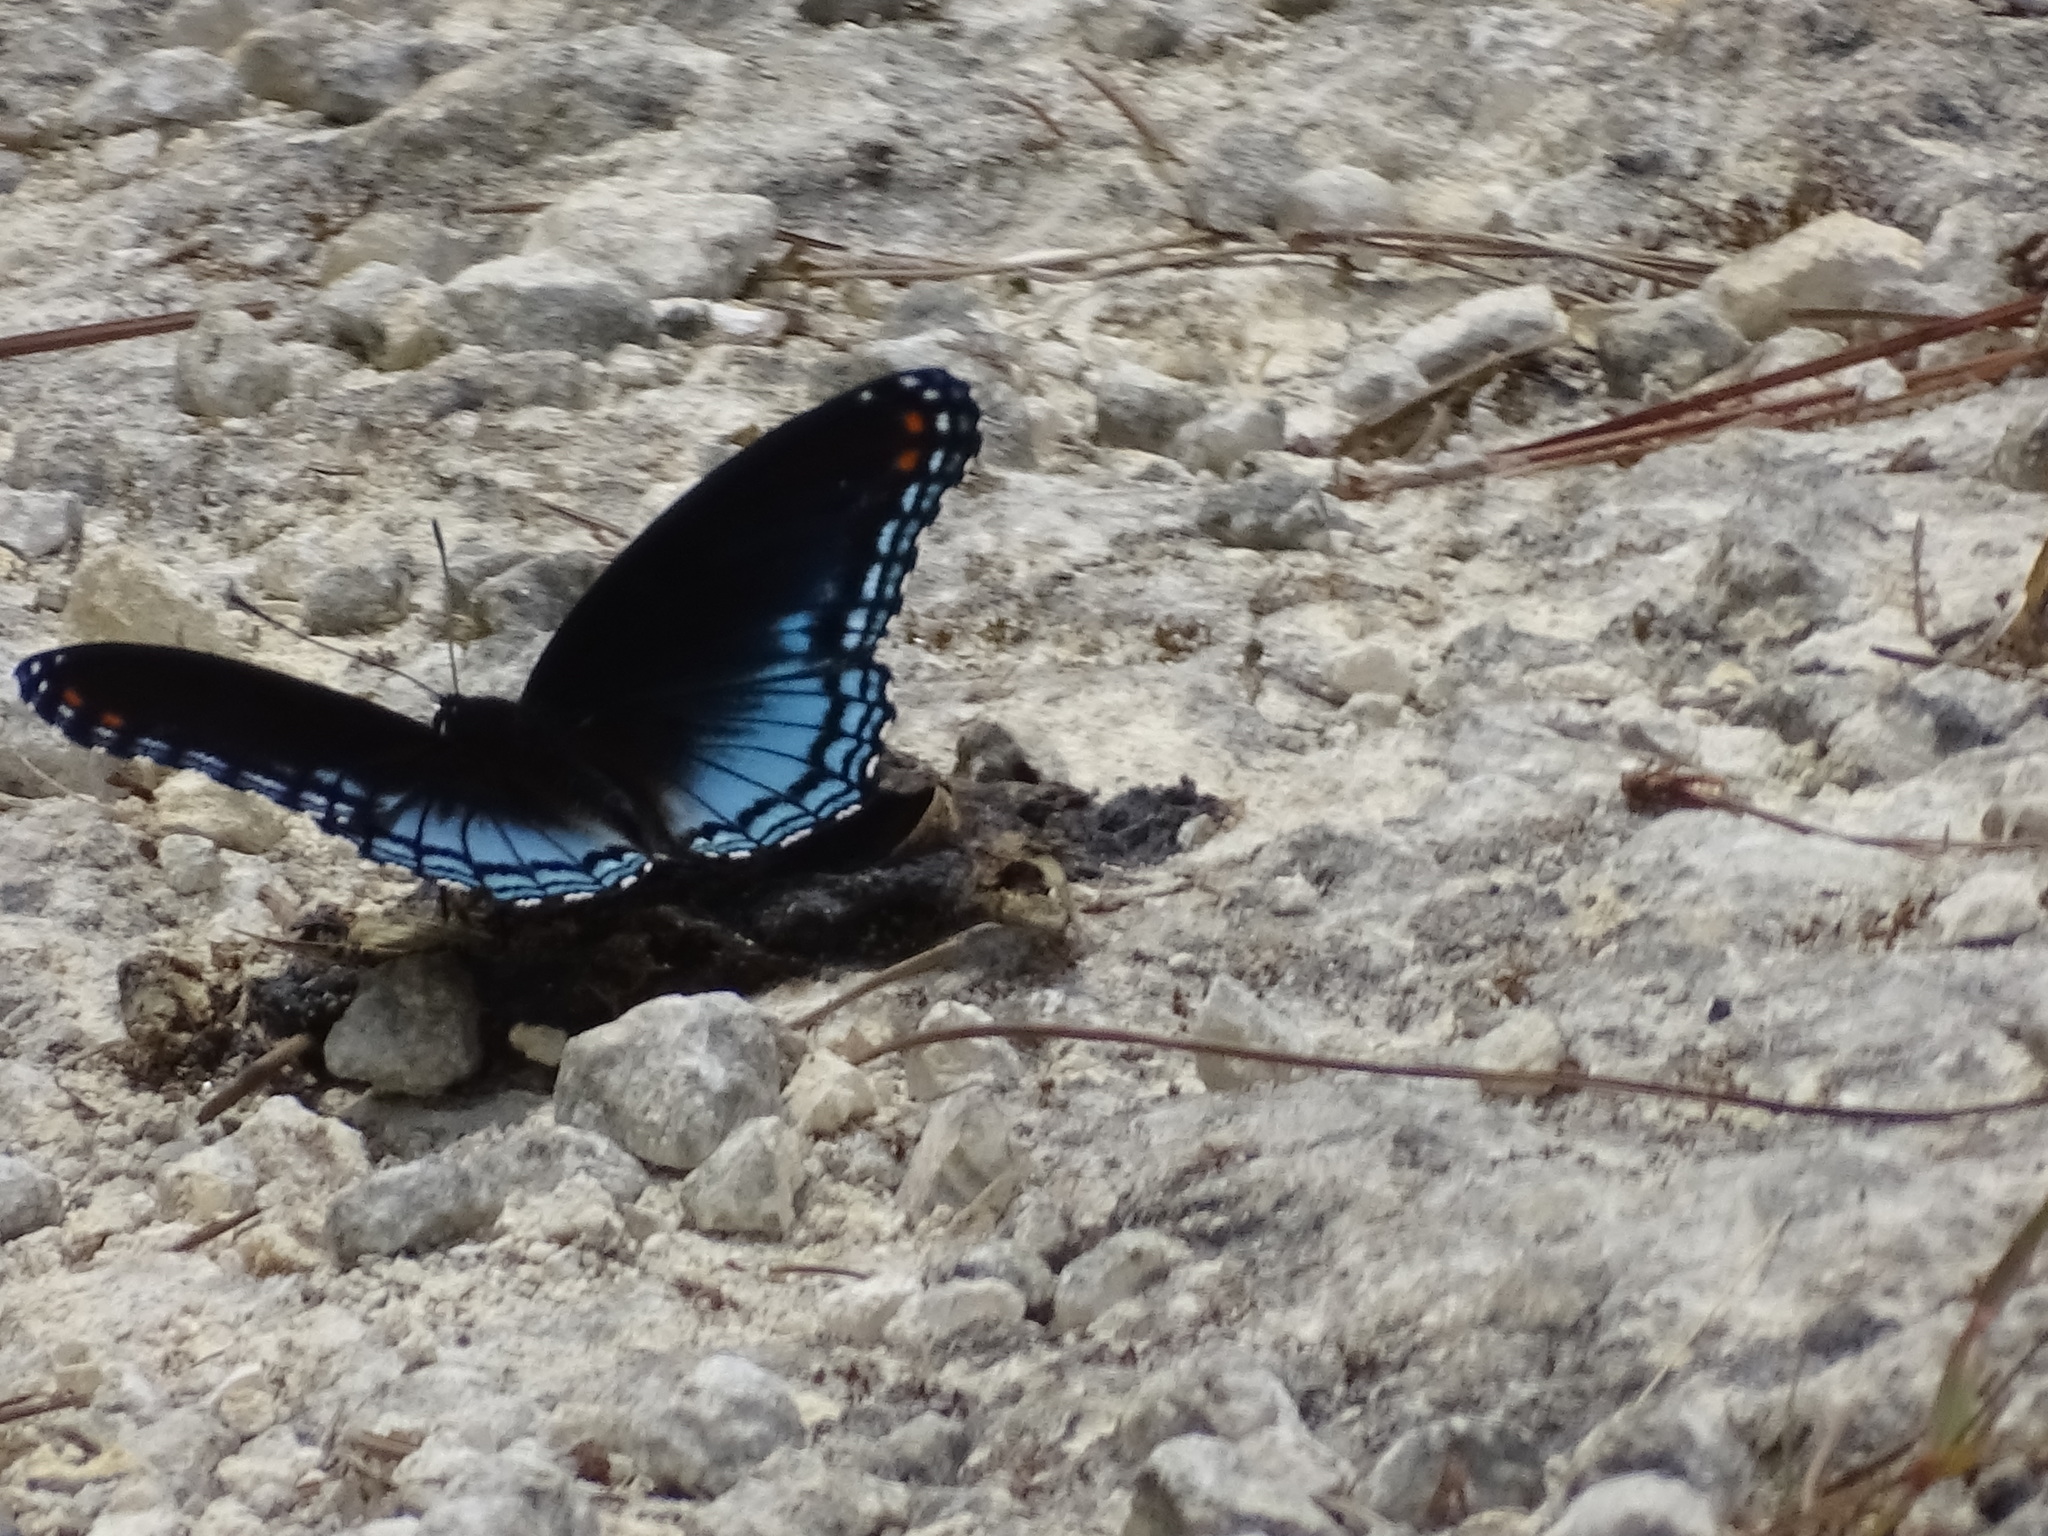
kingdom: Animalia
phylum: Arthropoda
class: Insecta
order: Lepidoptera
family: Nymphalidae
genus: Limenitis
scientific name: Limenitis astyanax
